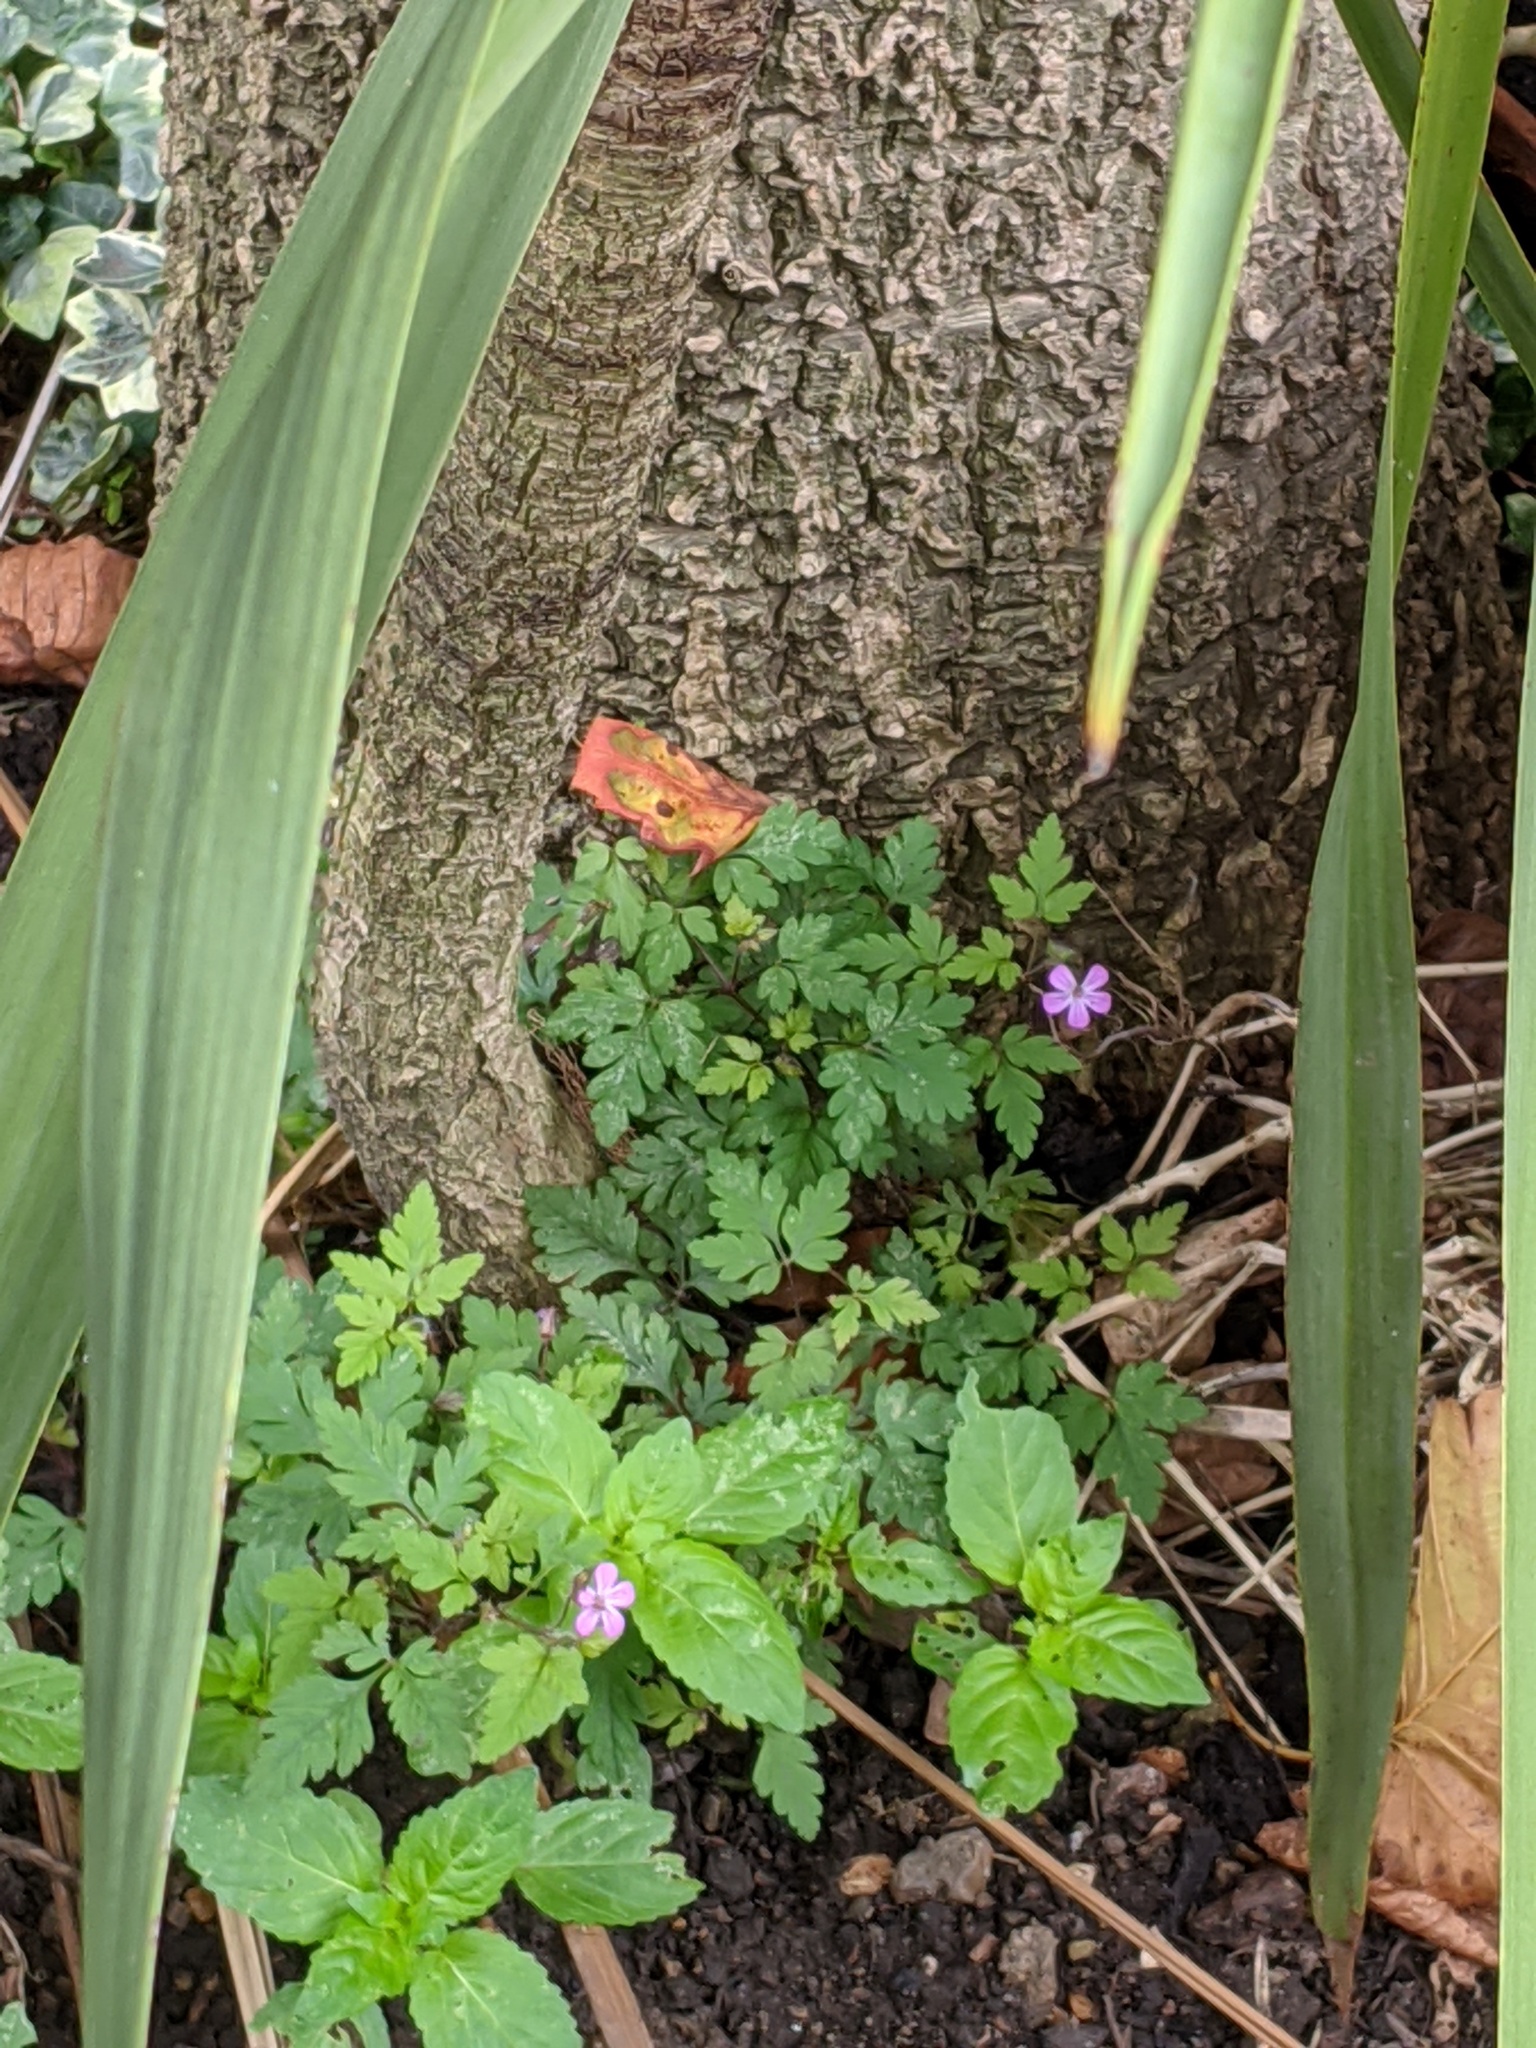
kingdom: Plantae
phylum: Tracheophyta
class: Magnoliopsida
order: Geraniales
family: Geraniaceae
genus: Geranium
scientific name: Geranium robertianum
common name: Herb-robert
